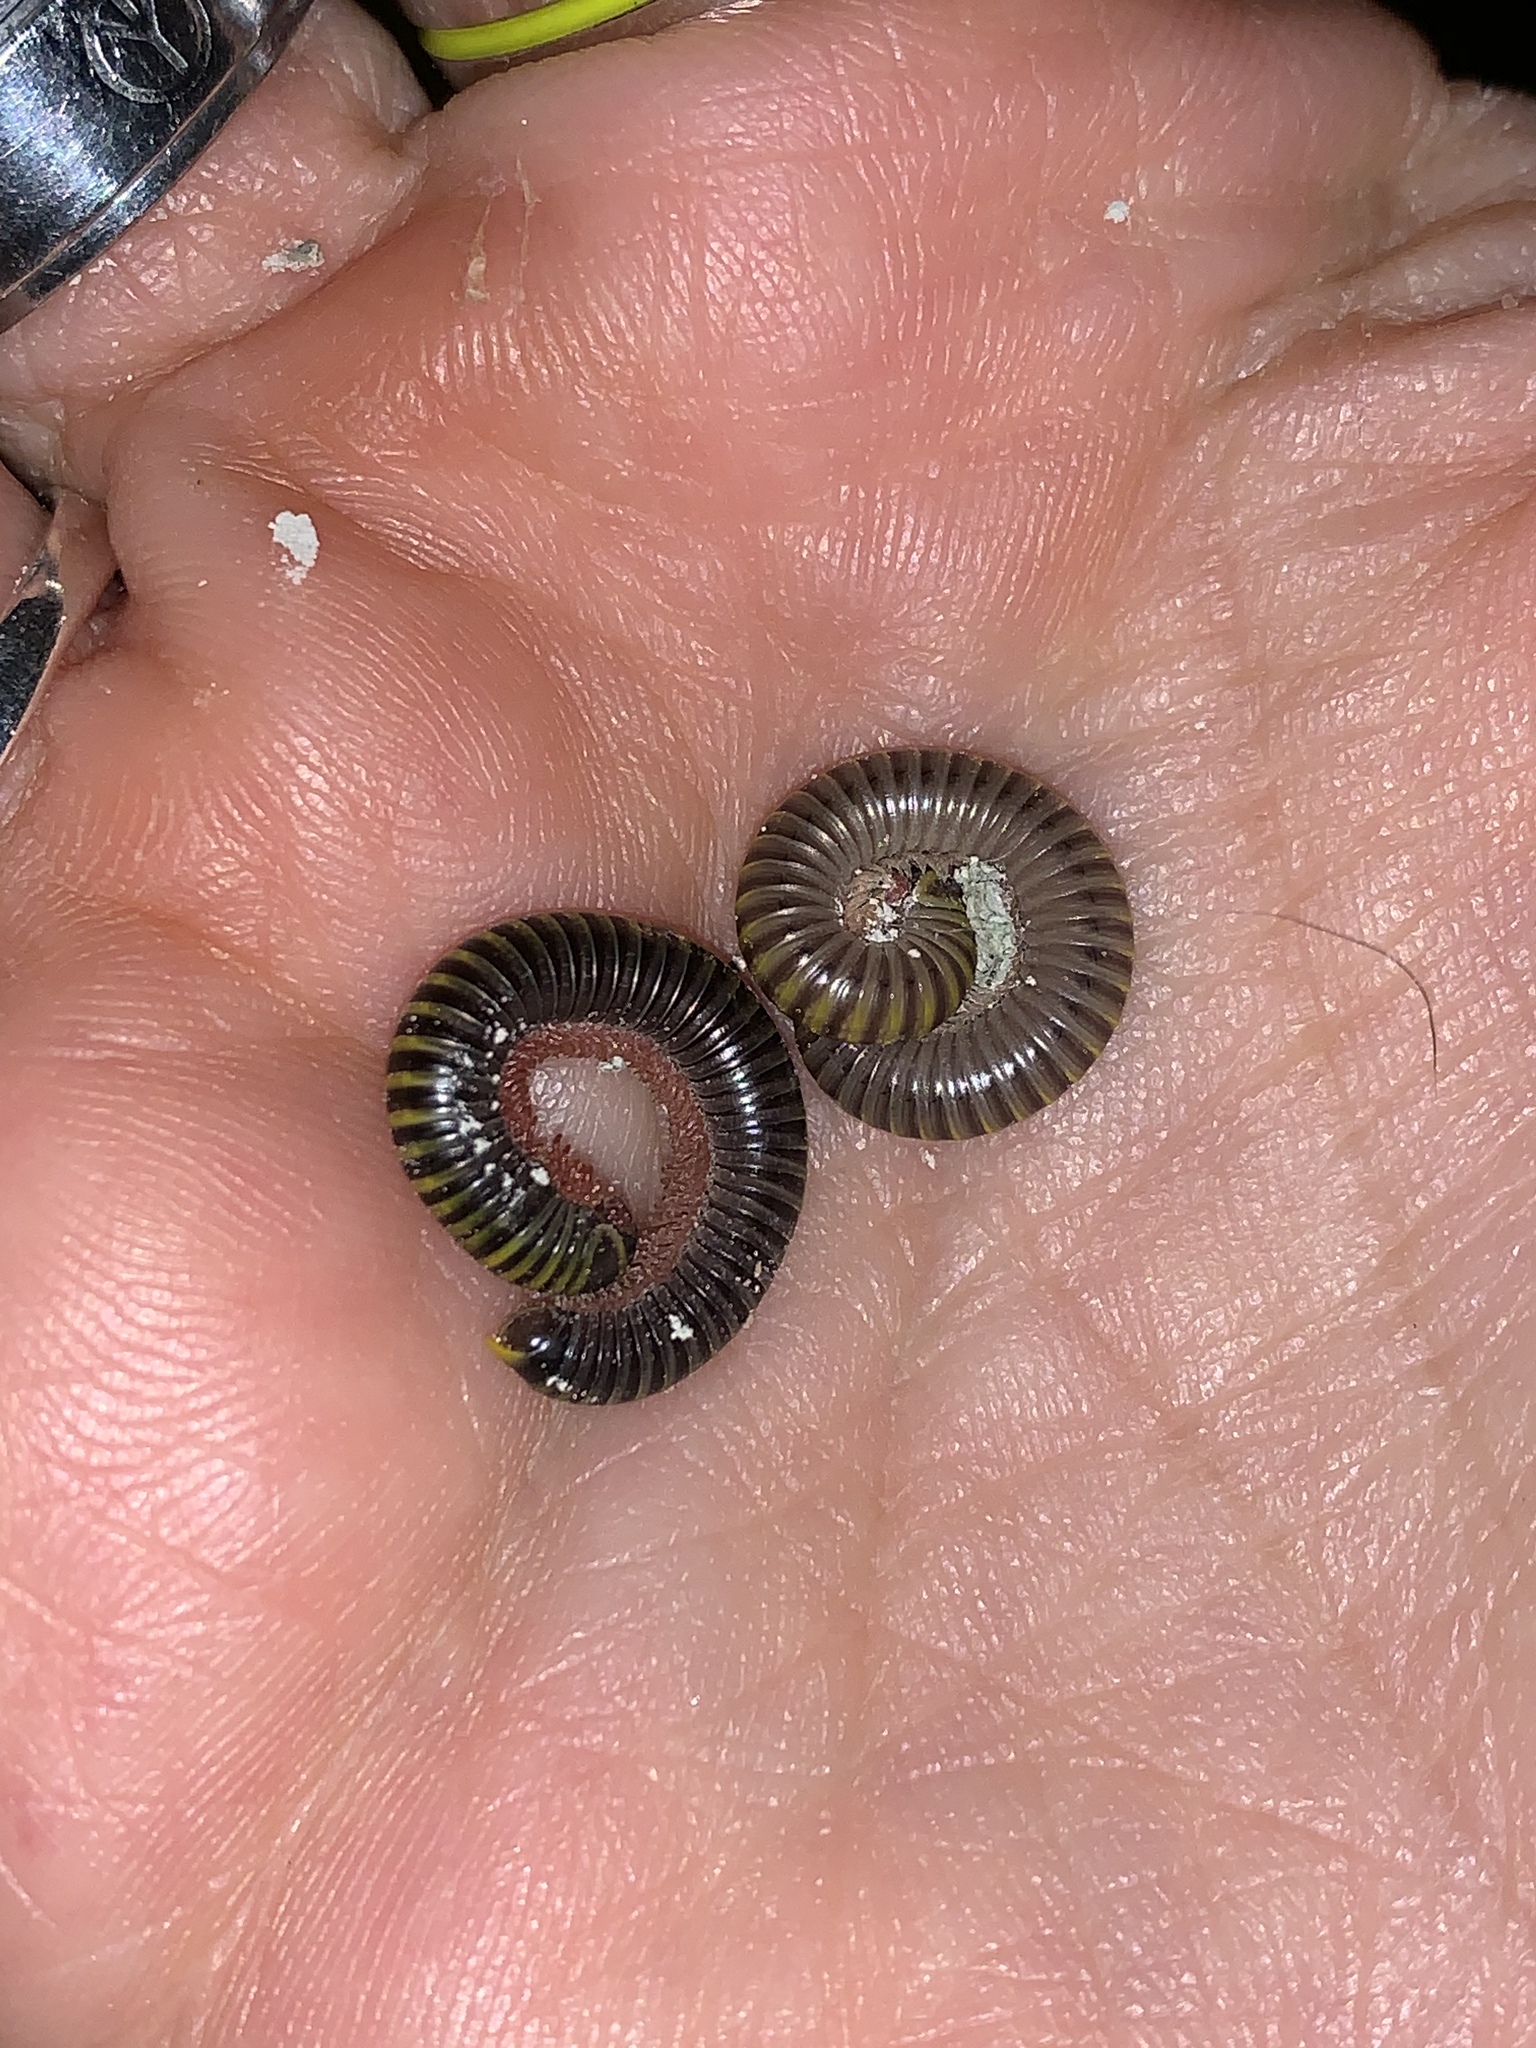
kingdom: Animalia
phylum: Arthropoda
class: Diplopoda
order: Spirobolida
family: Rhinocricidae
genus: Anadenobolus
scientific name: Anadenobolus monilicornis
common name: Caribbean millipede
